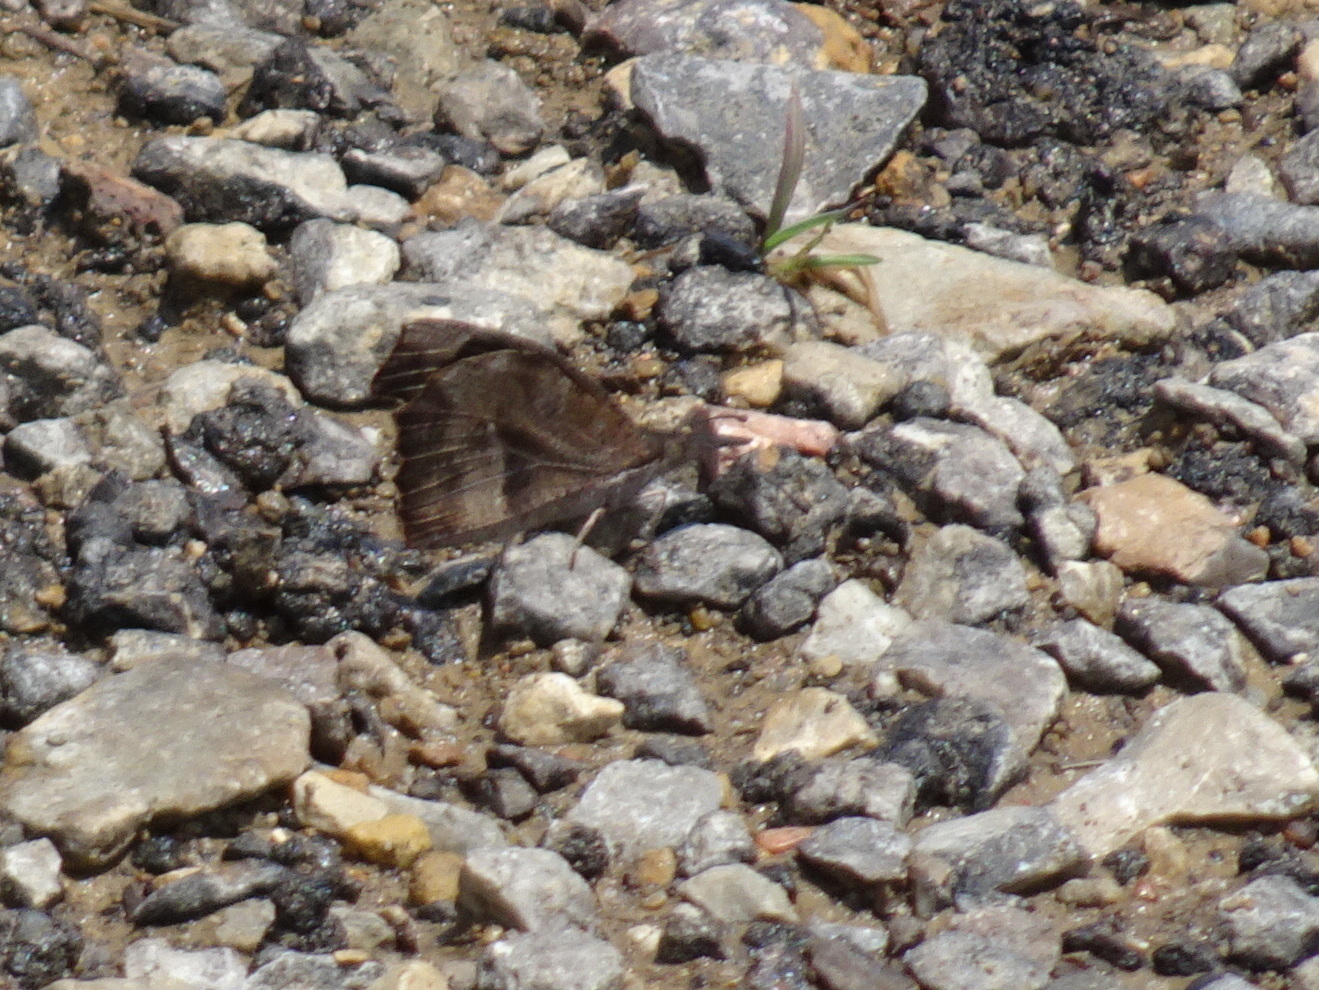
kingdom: Animalia
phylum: Arthropoda
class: Insecta
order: Lepidoptera
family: Nymphalidae
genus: Libytheana
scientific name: Libytheana carinenta
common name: American snout
